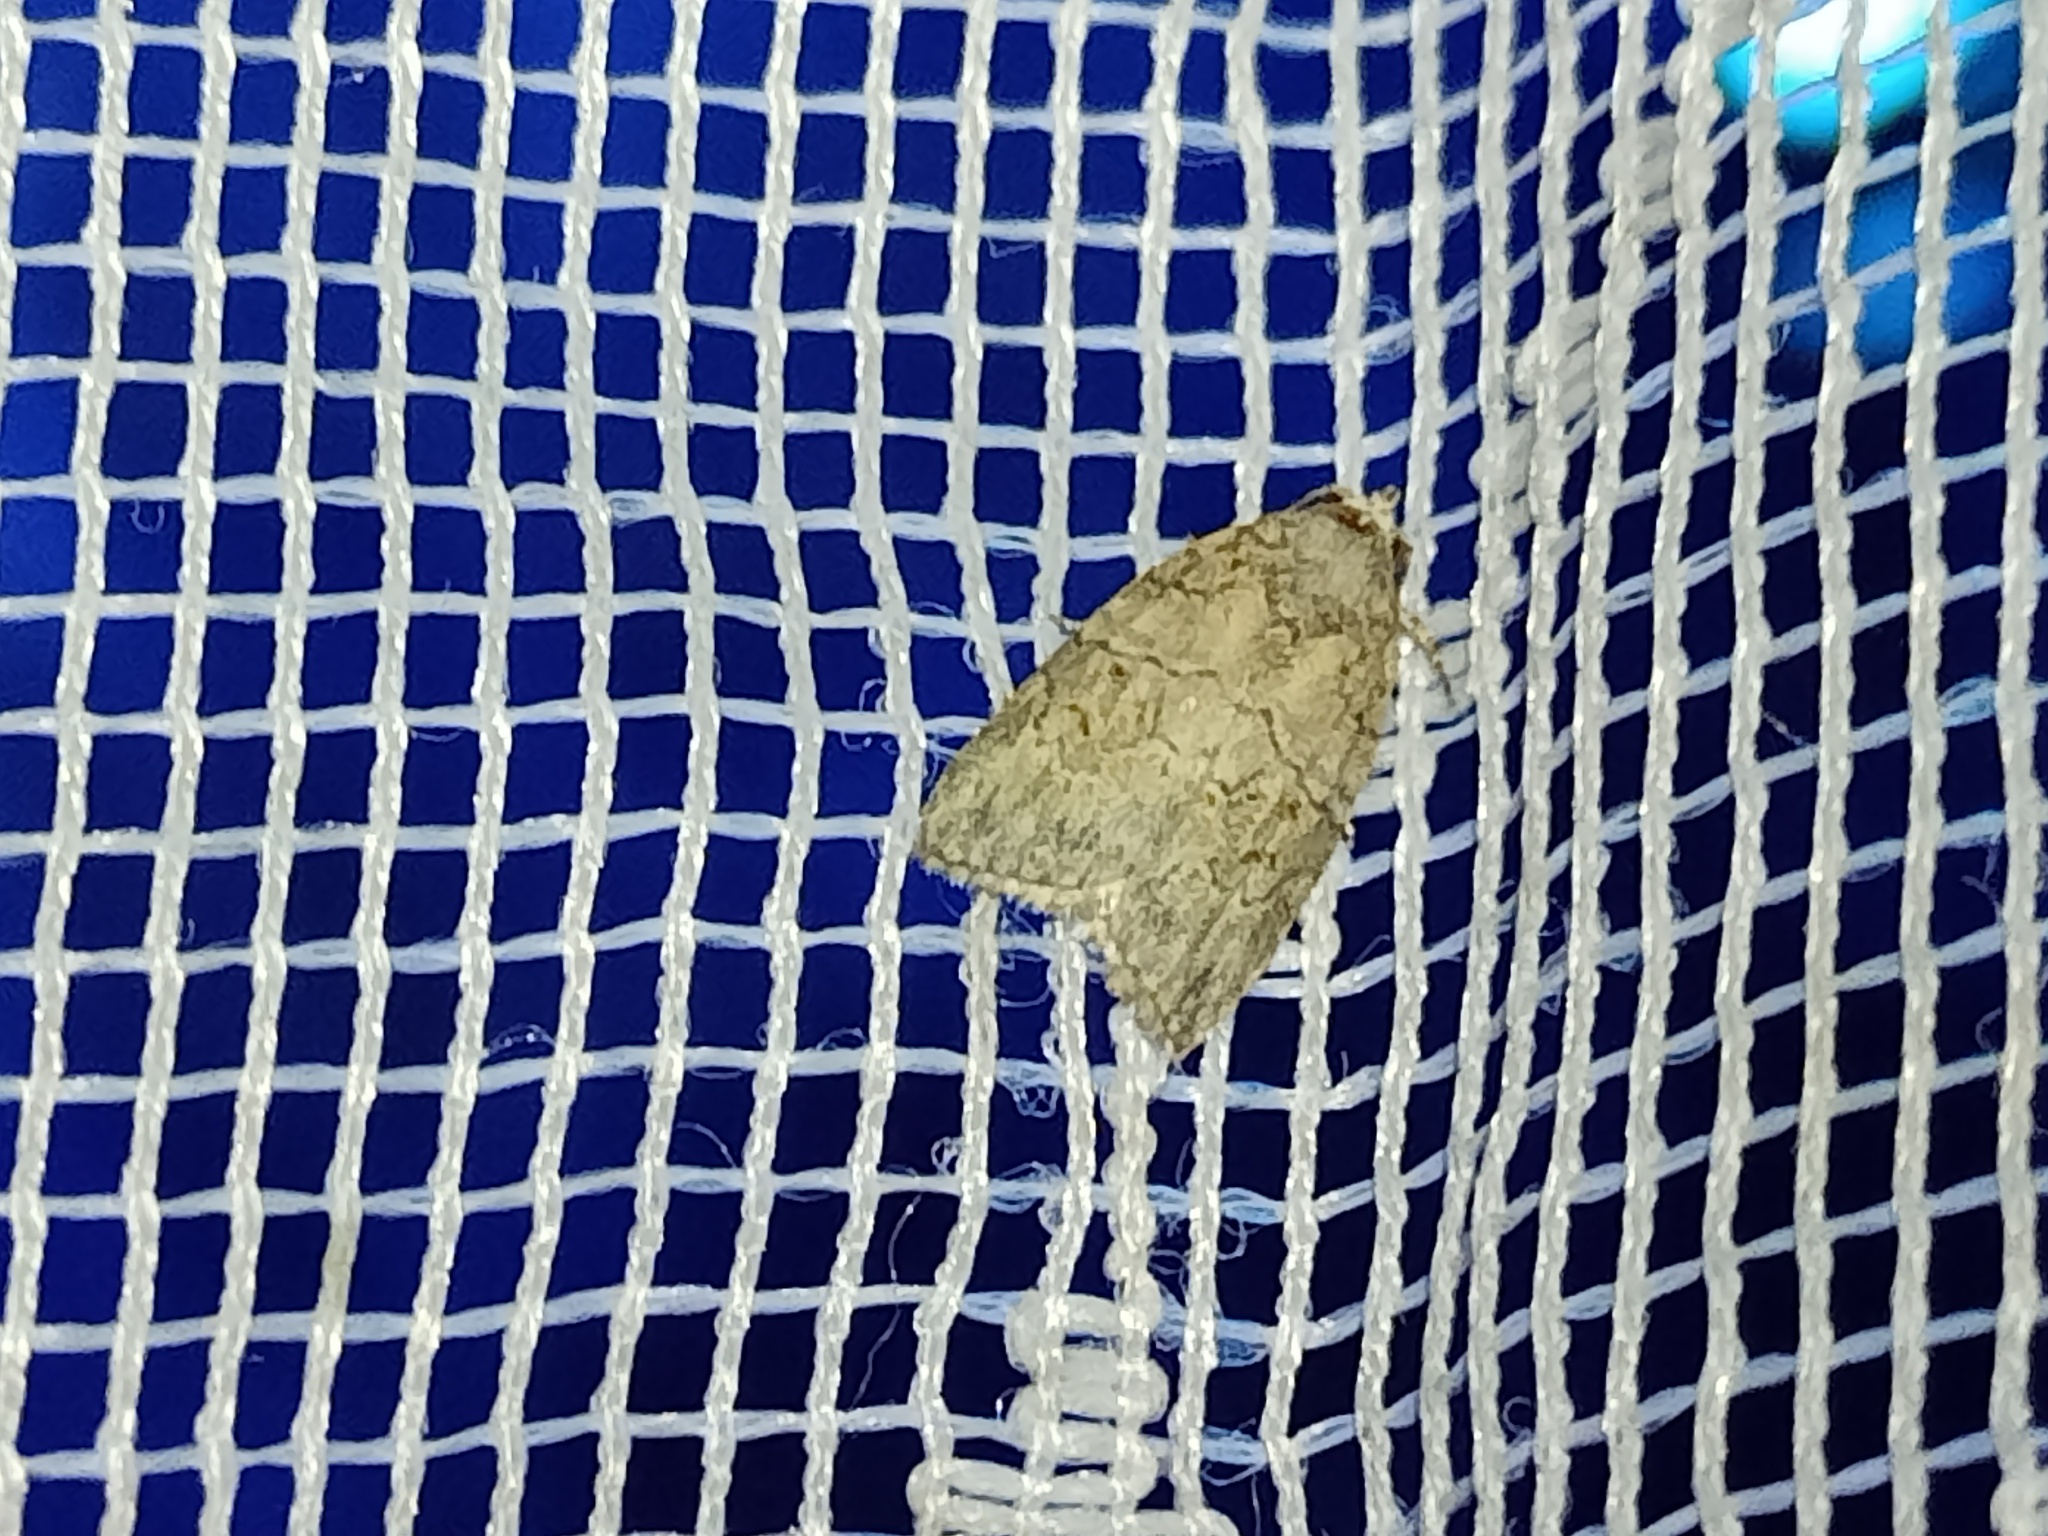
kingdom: Animalia
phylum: Arthropoda
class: Insecta
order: Lepidoptera
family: Nolidae
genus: Garella
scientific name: Garella nilotica
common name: Black-olive caterpillar moth
